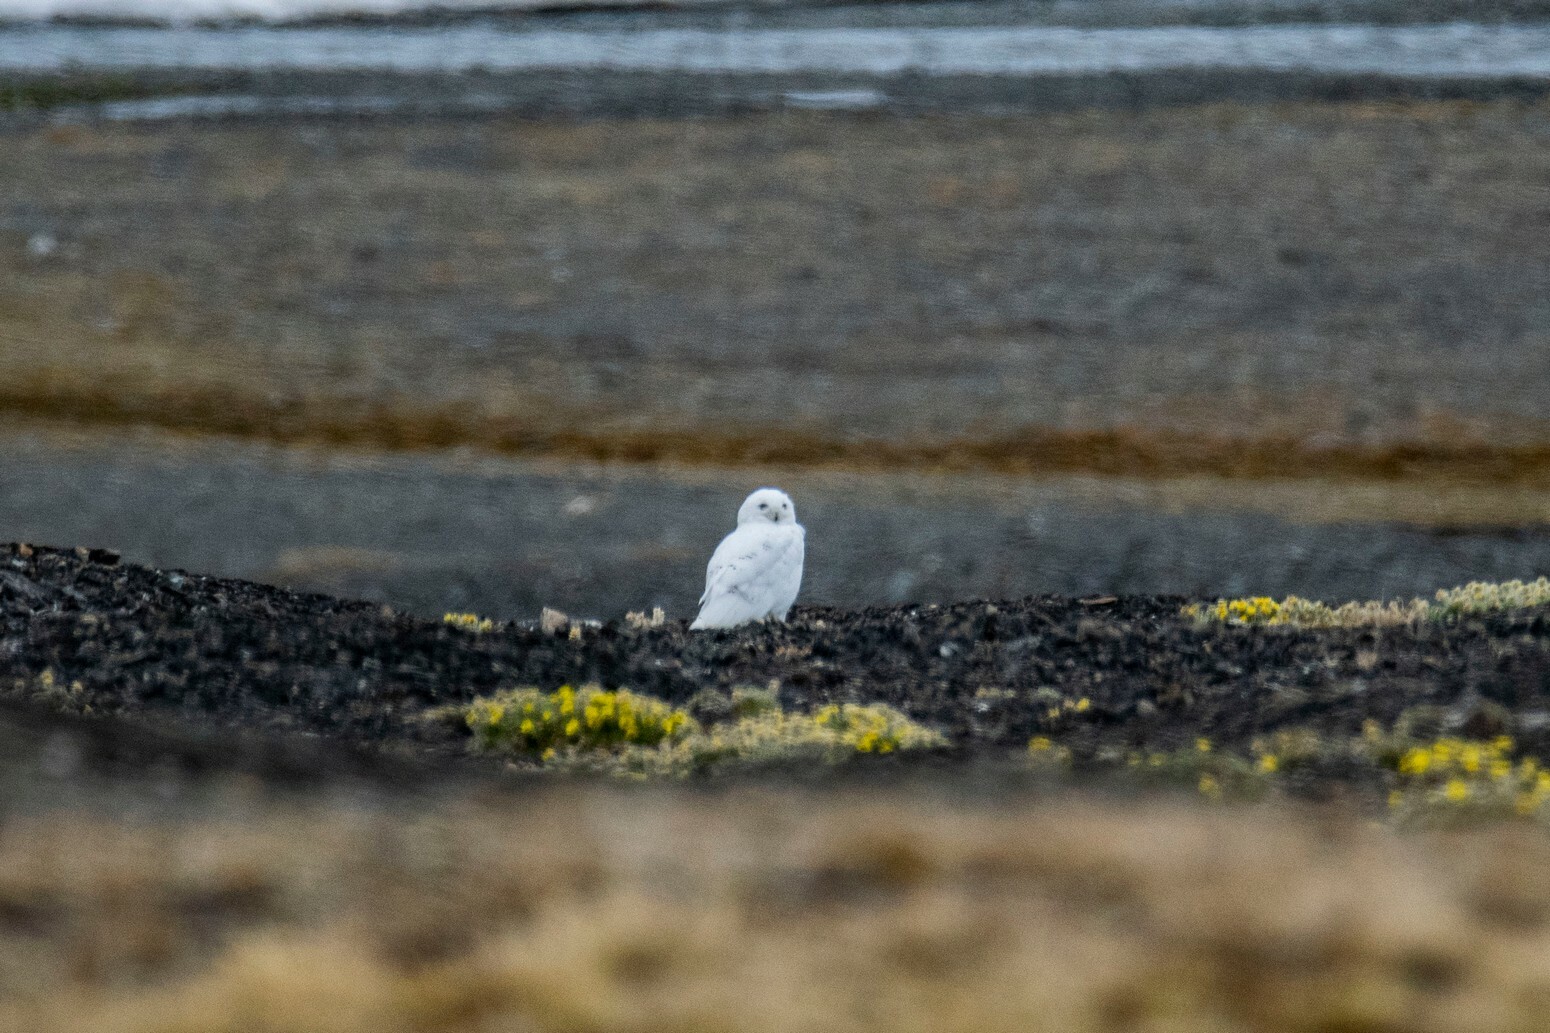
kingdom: Animalia
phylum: Chordata
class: Aves
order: Strigiformes
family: Strigidae
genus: Bubo
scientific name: Bubo scandiacus
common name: Snowy owl
